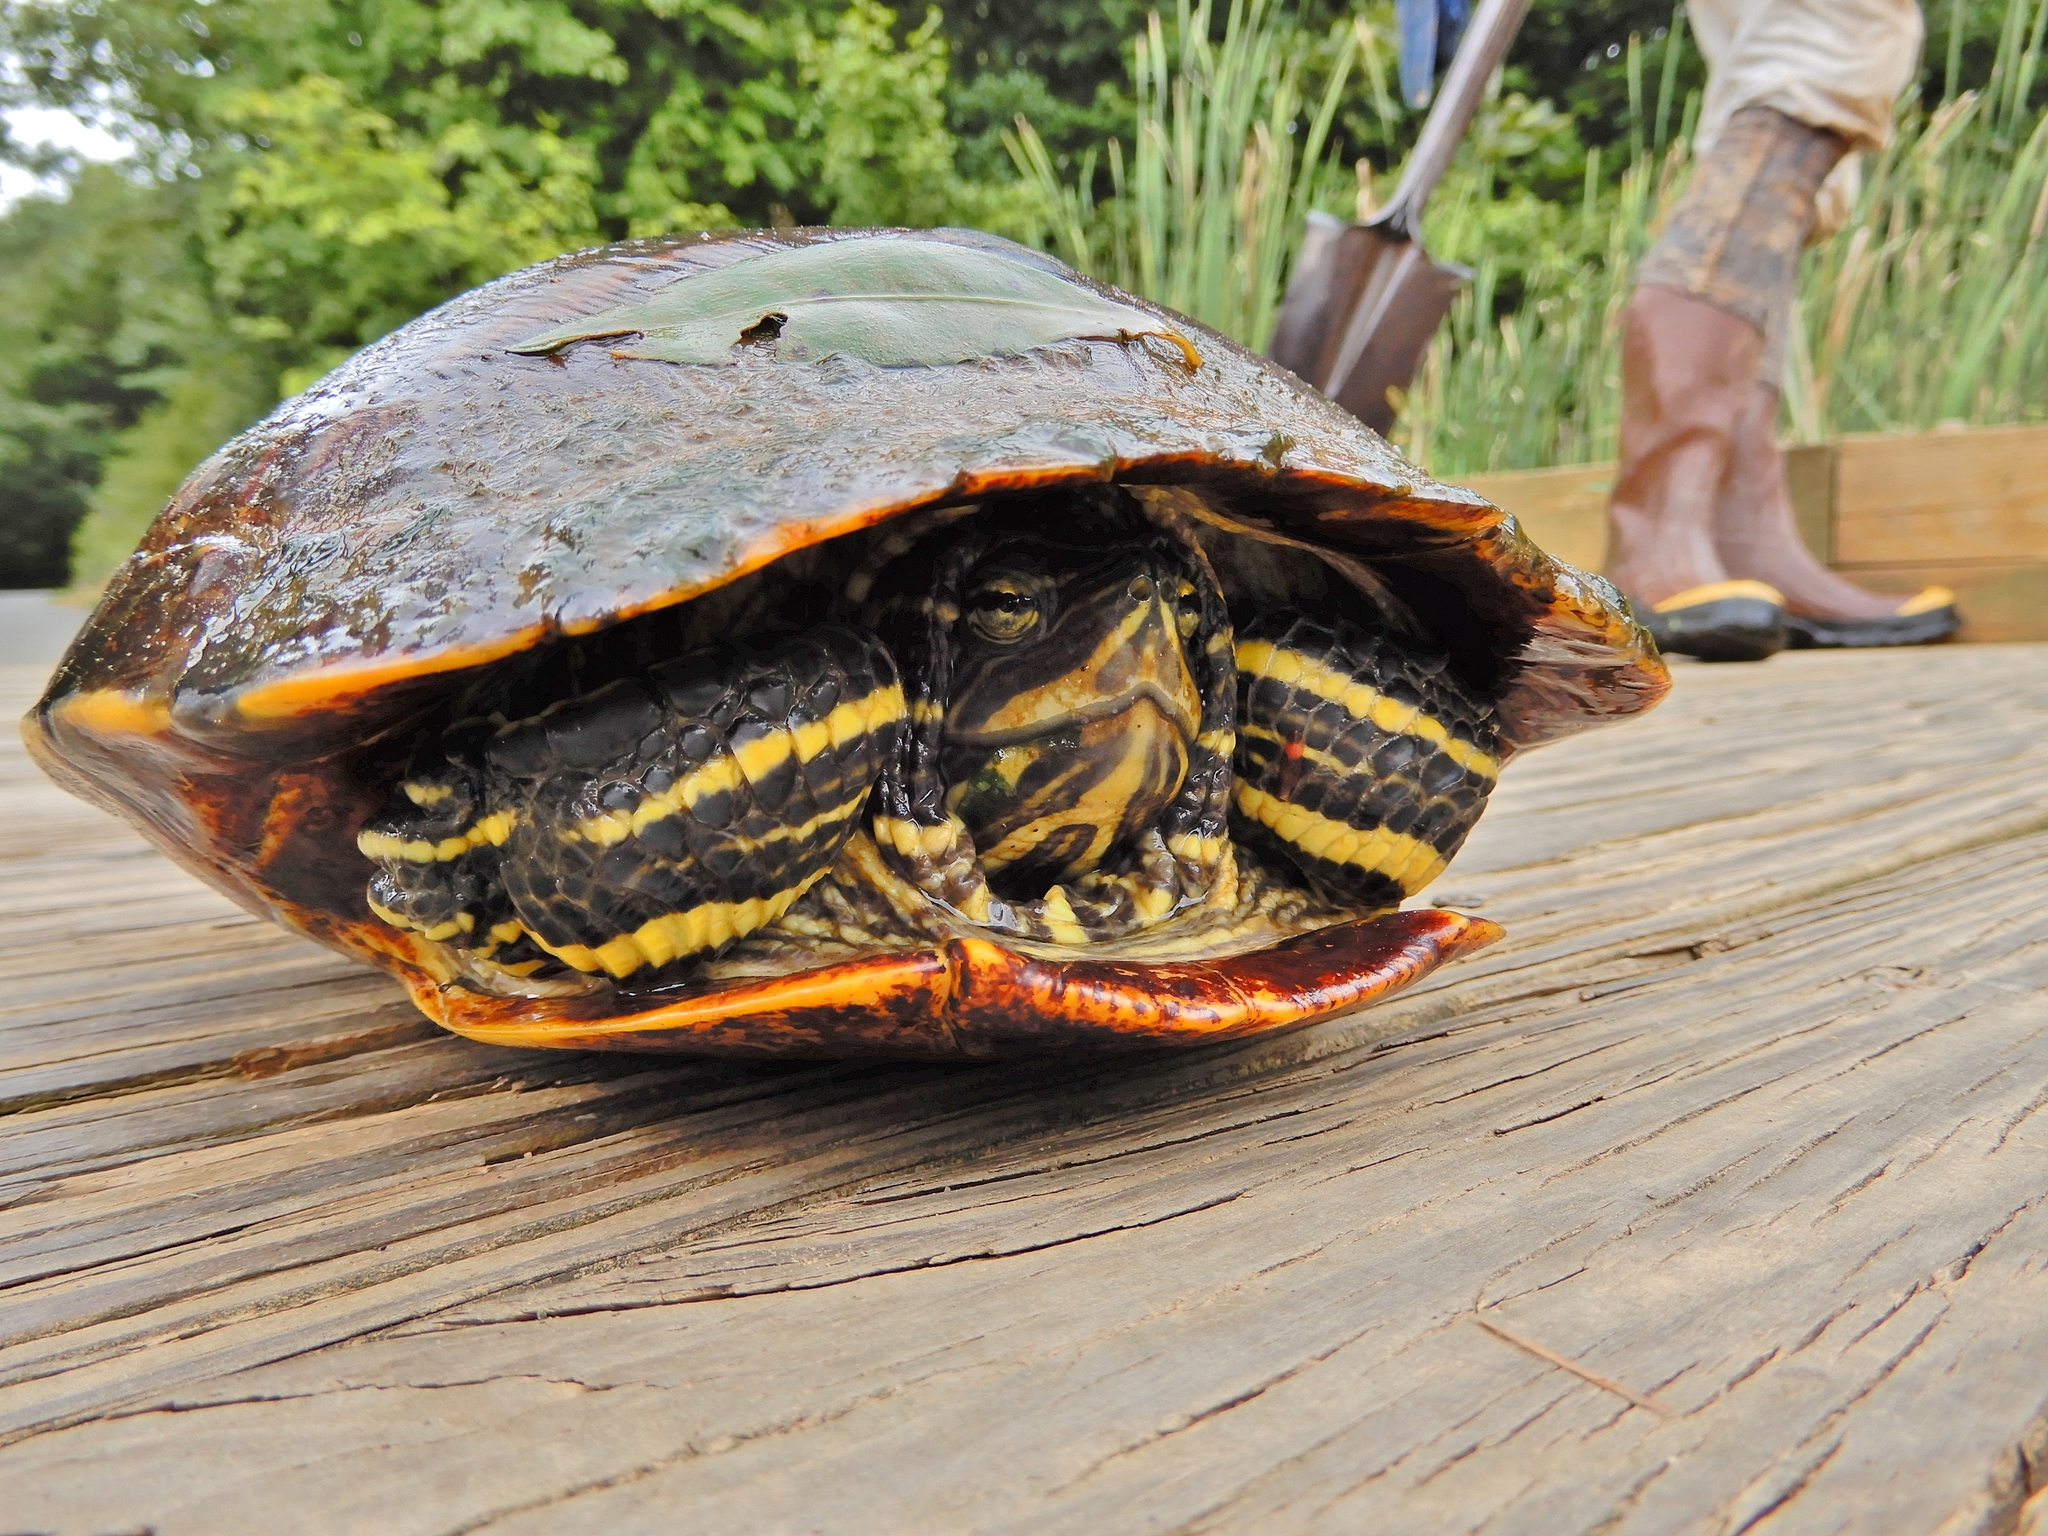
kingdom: Animalia
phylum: Chordata
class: Testudines
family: Emydidae
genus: Trachemys
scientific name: Trachemys scripta
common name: Slider
